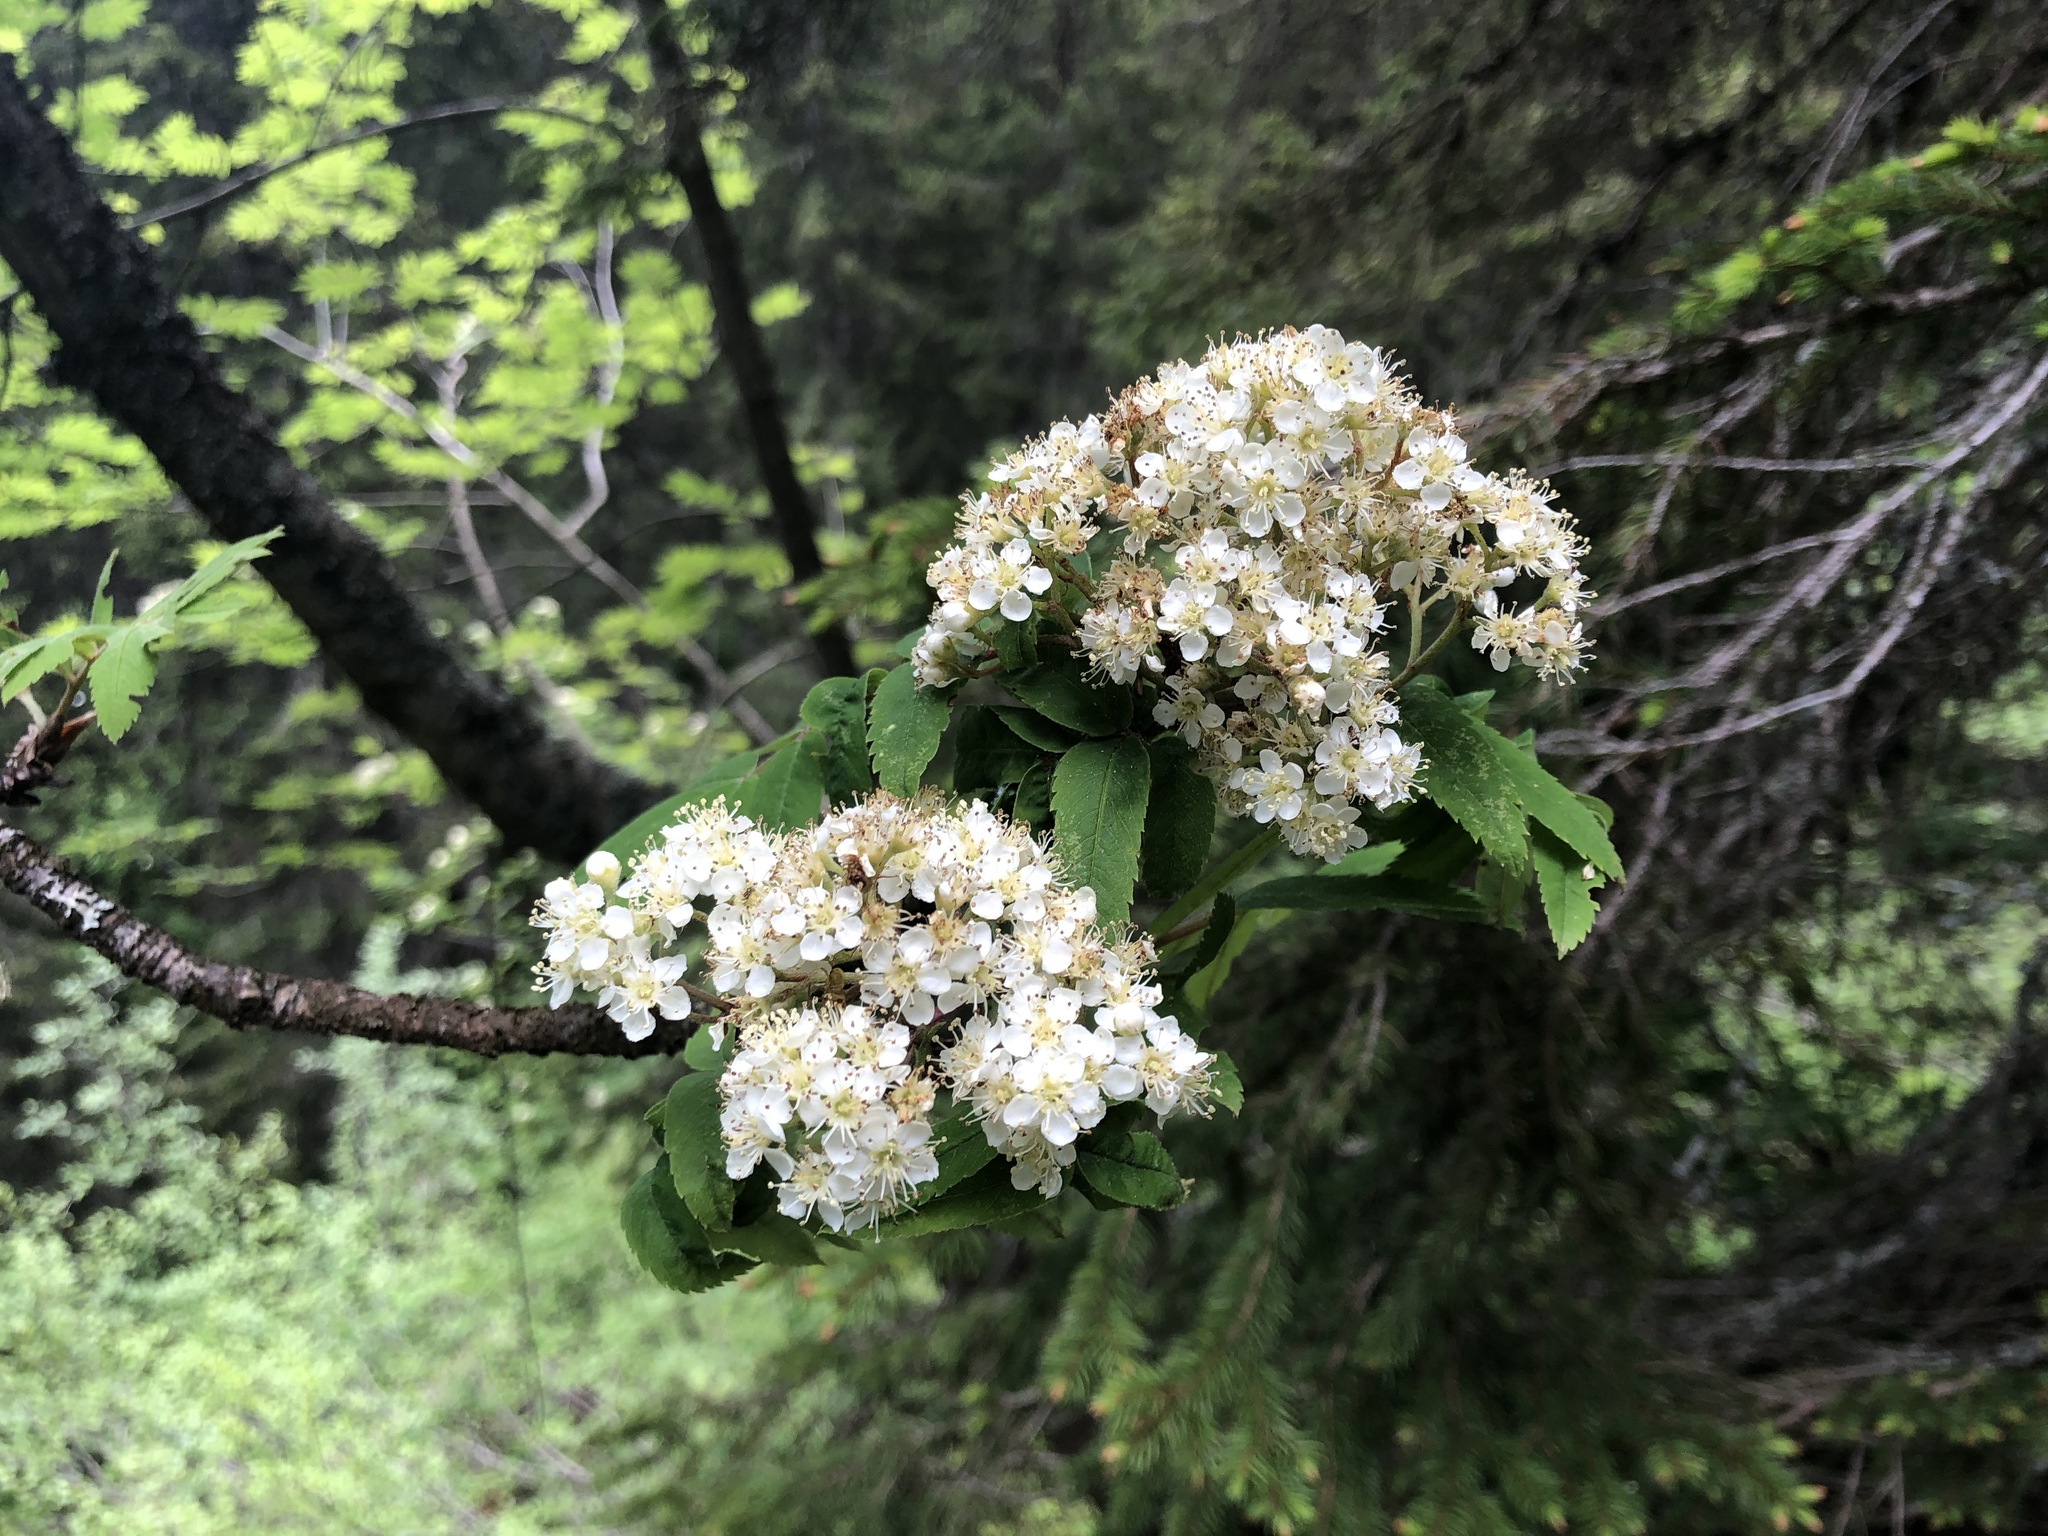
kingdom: Plantae
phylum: Tracheophyta
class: Magnoliopsida
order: Rosales
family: Rosaceae
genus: Sorbus
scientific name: Sorbus aucuparia
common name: Rowan
